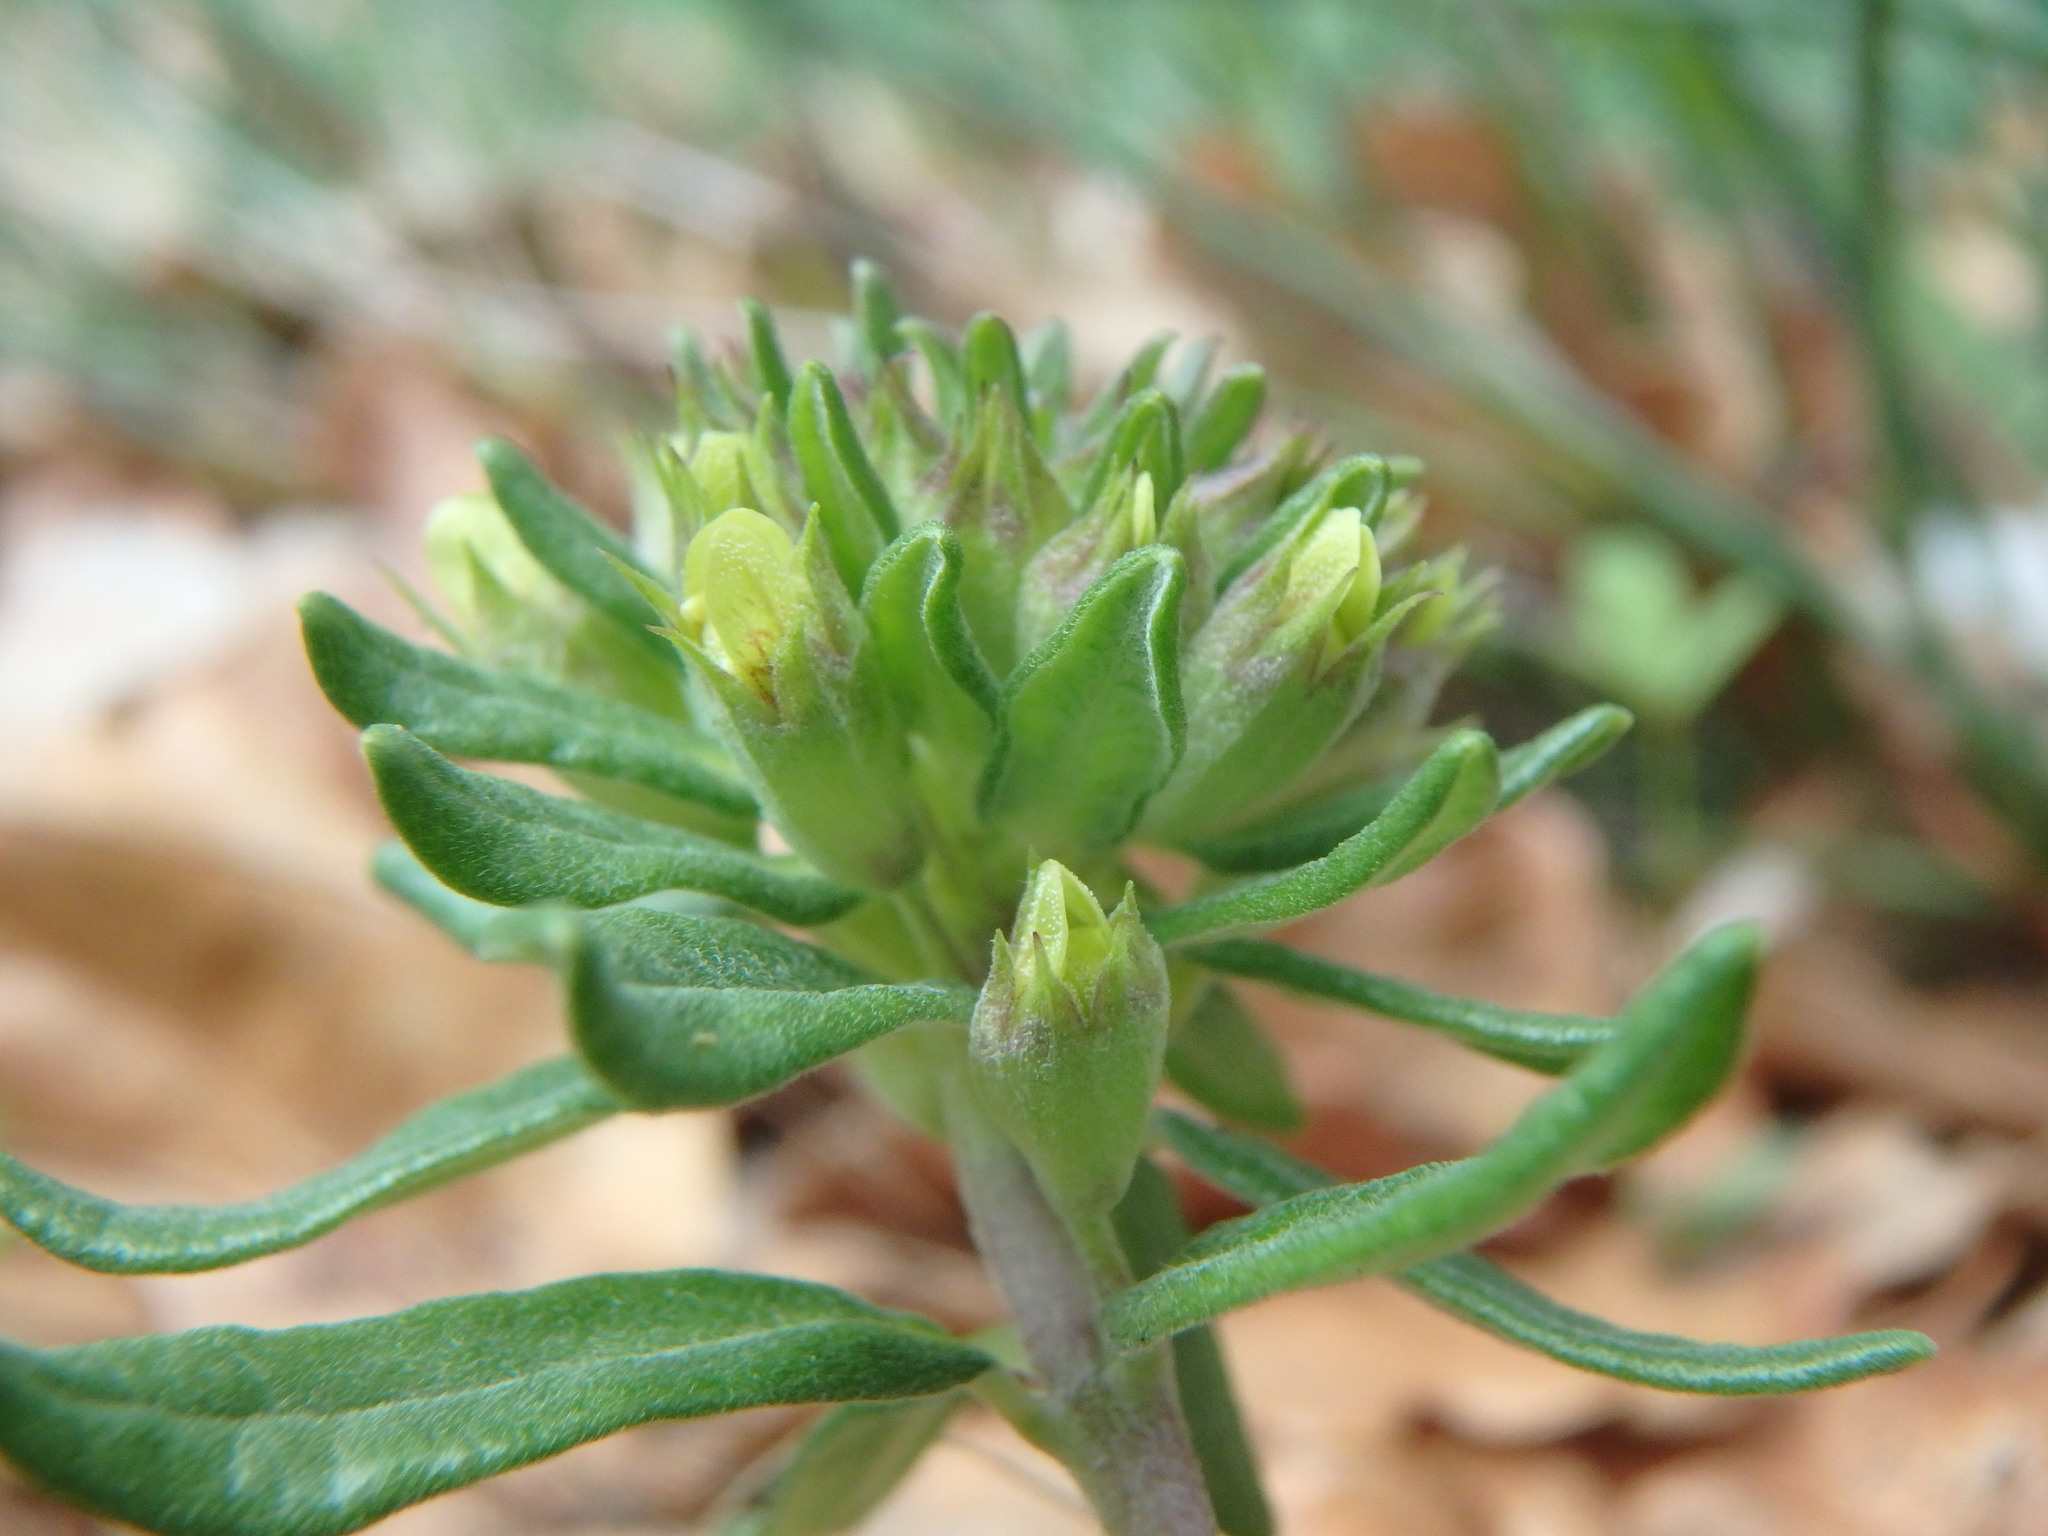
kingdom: Plantae
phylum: Tracheophyta
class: Magnoliopsida
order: Lamiales
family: Lamiaceae
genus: Teucrium
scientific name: Teucrium montanum
